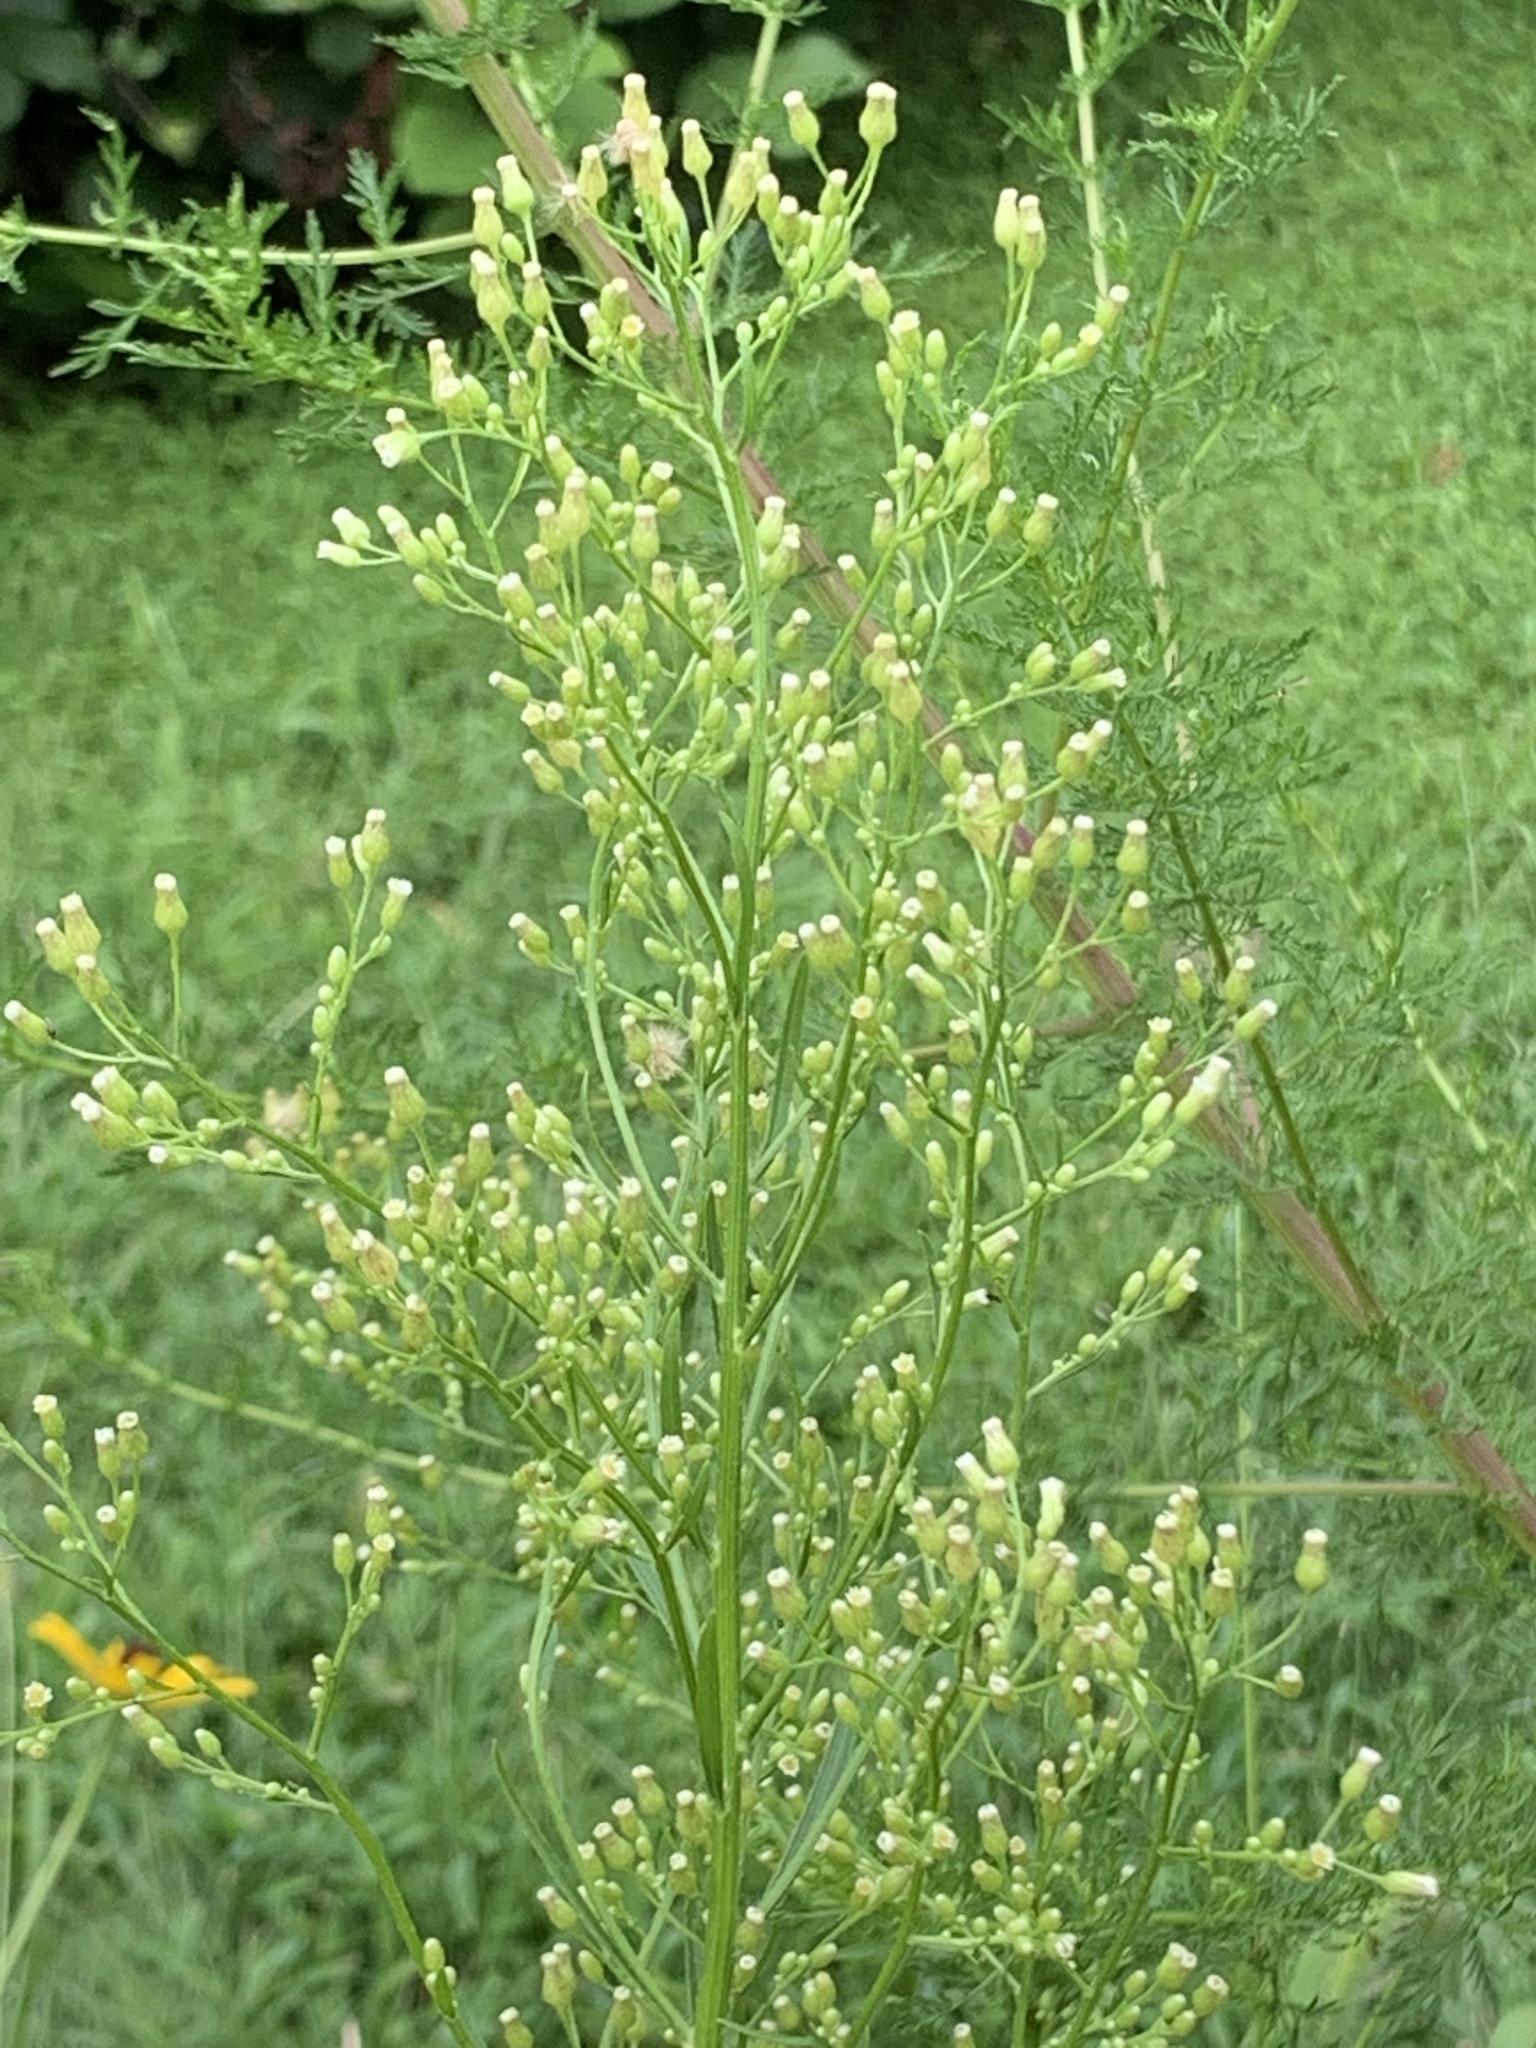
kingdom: Plantae
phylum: Tracheophyta
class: Magnoliopsida
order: Asterales
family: Asteraceae
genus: Erigeron
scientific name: Erigeron canadensis
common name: Canadian fleabane
